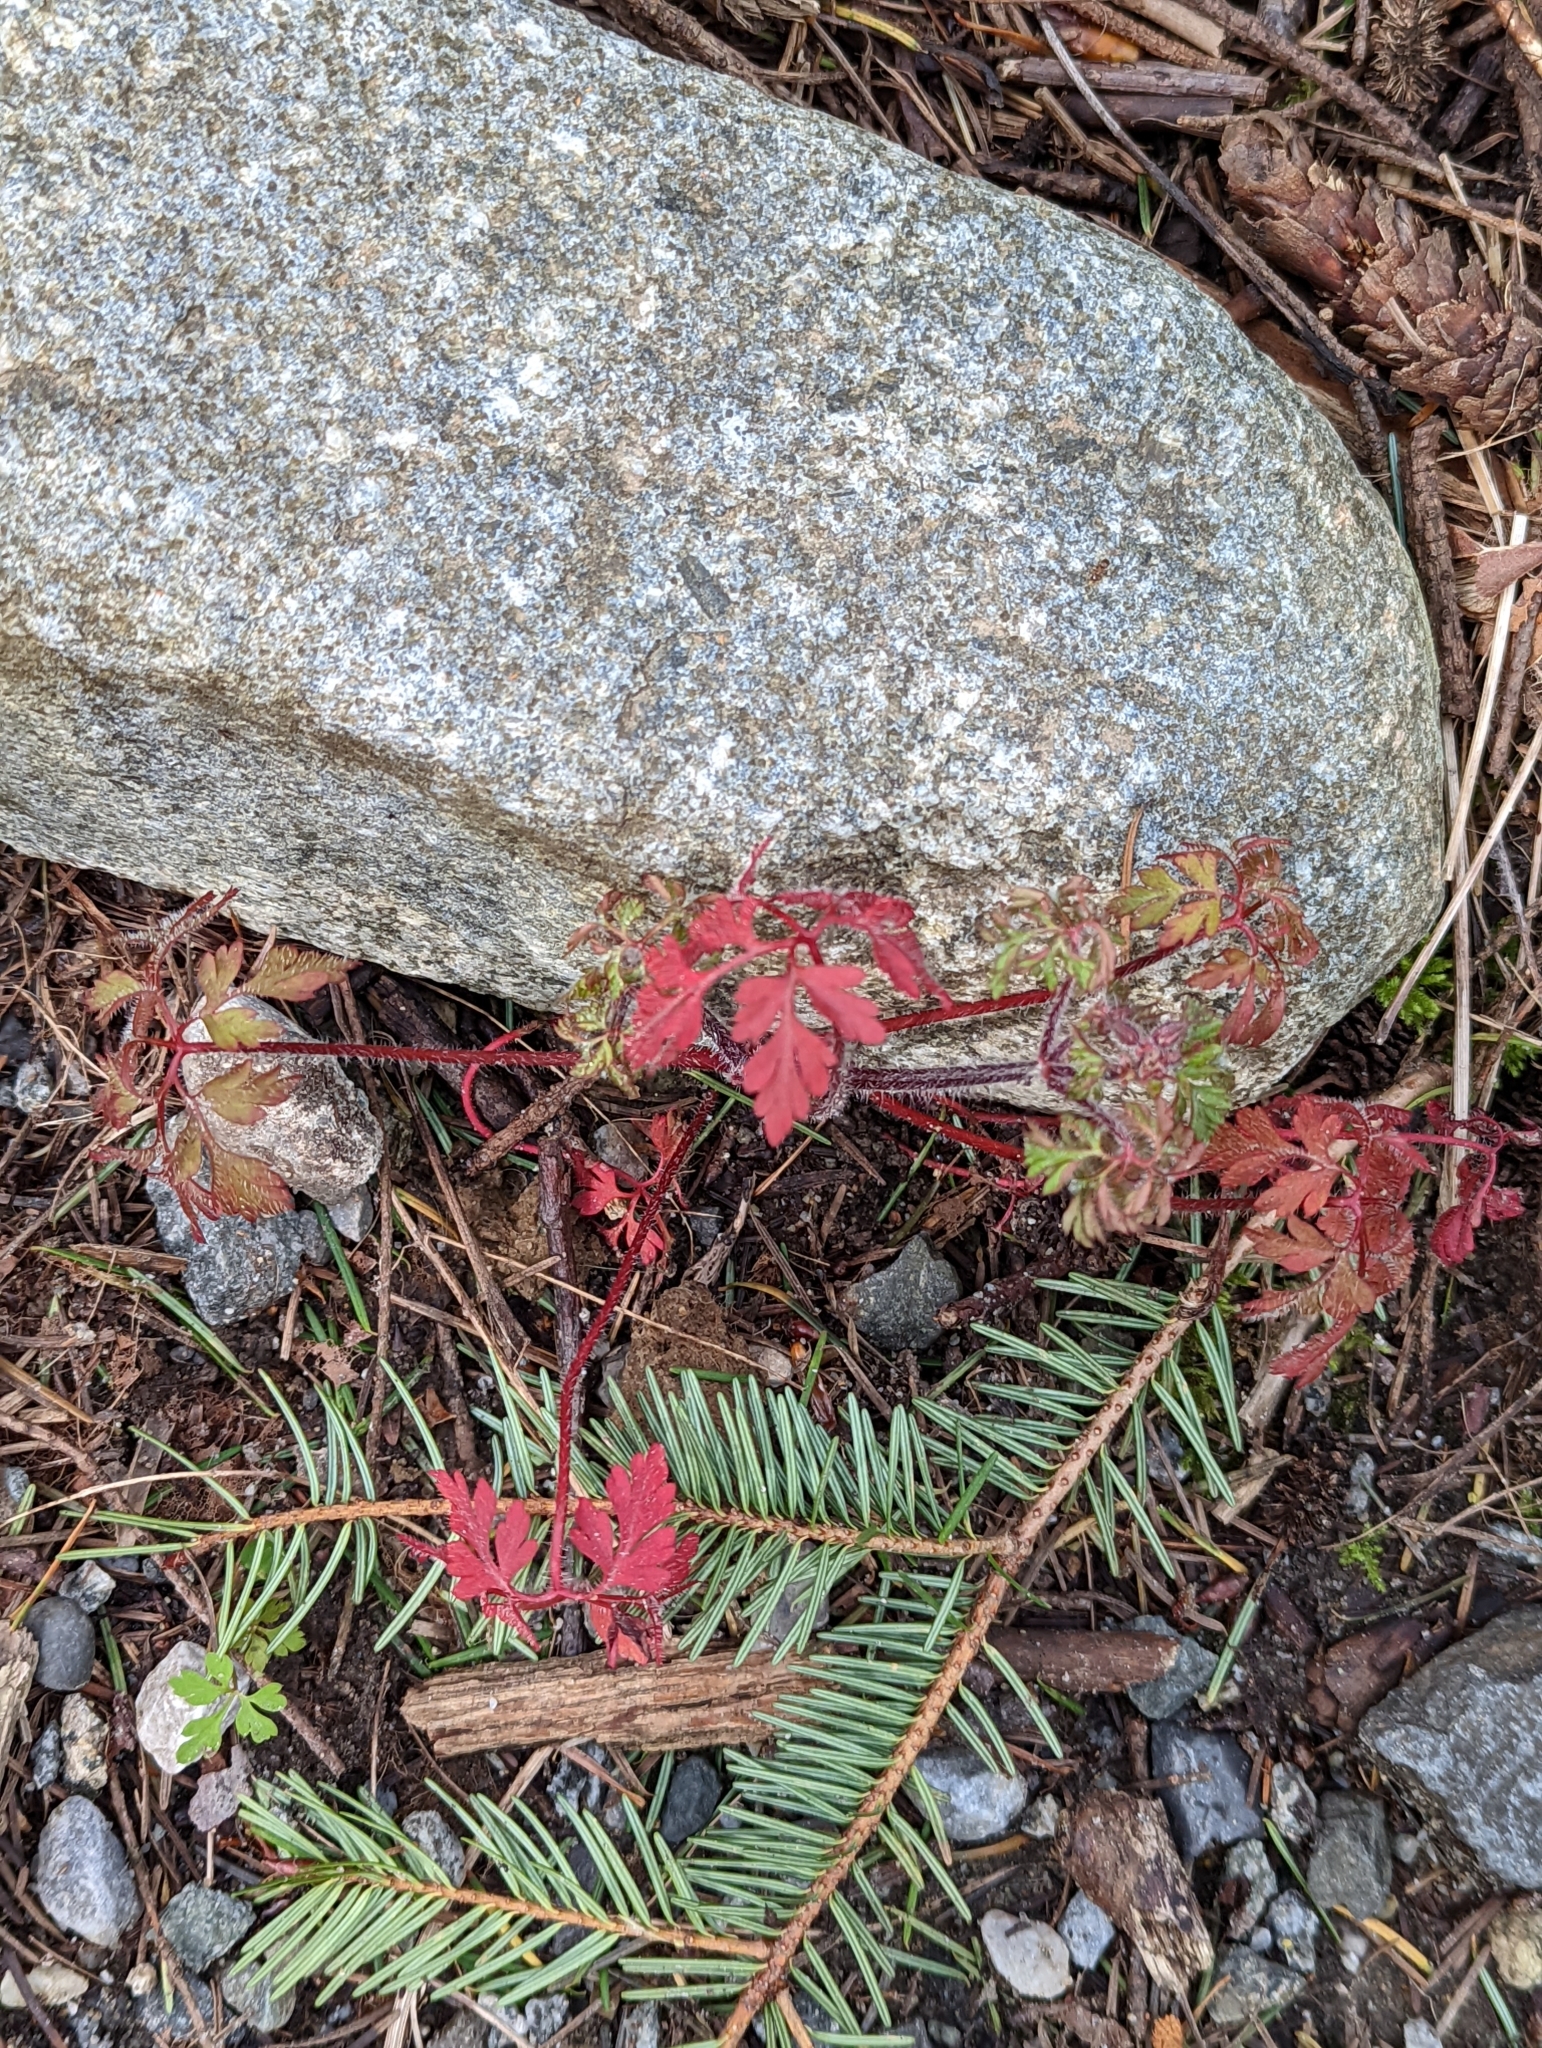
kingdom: Plantae
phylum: Tracheophyta
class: Magnoliopsida
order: Geraniales
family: Geraniaceae
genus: Geranium
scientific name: Geranium robertianum
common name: Herb-robert
